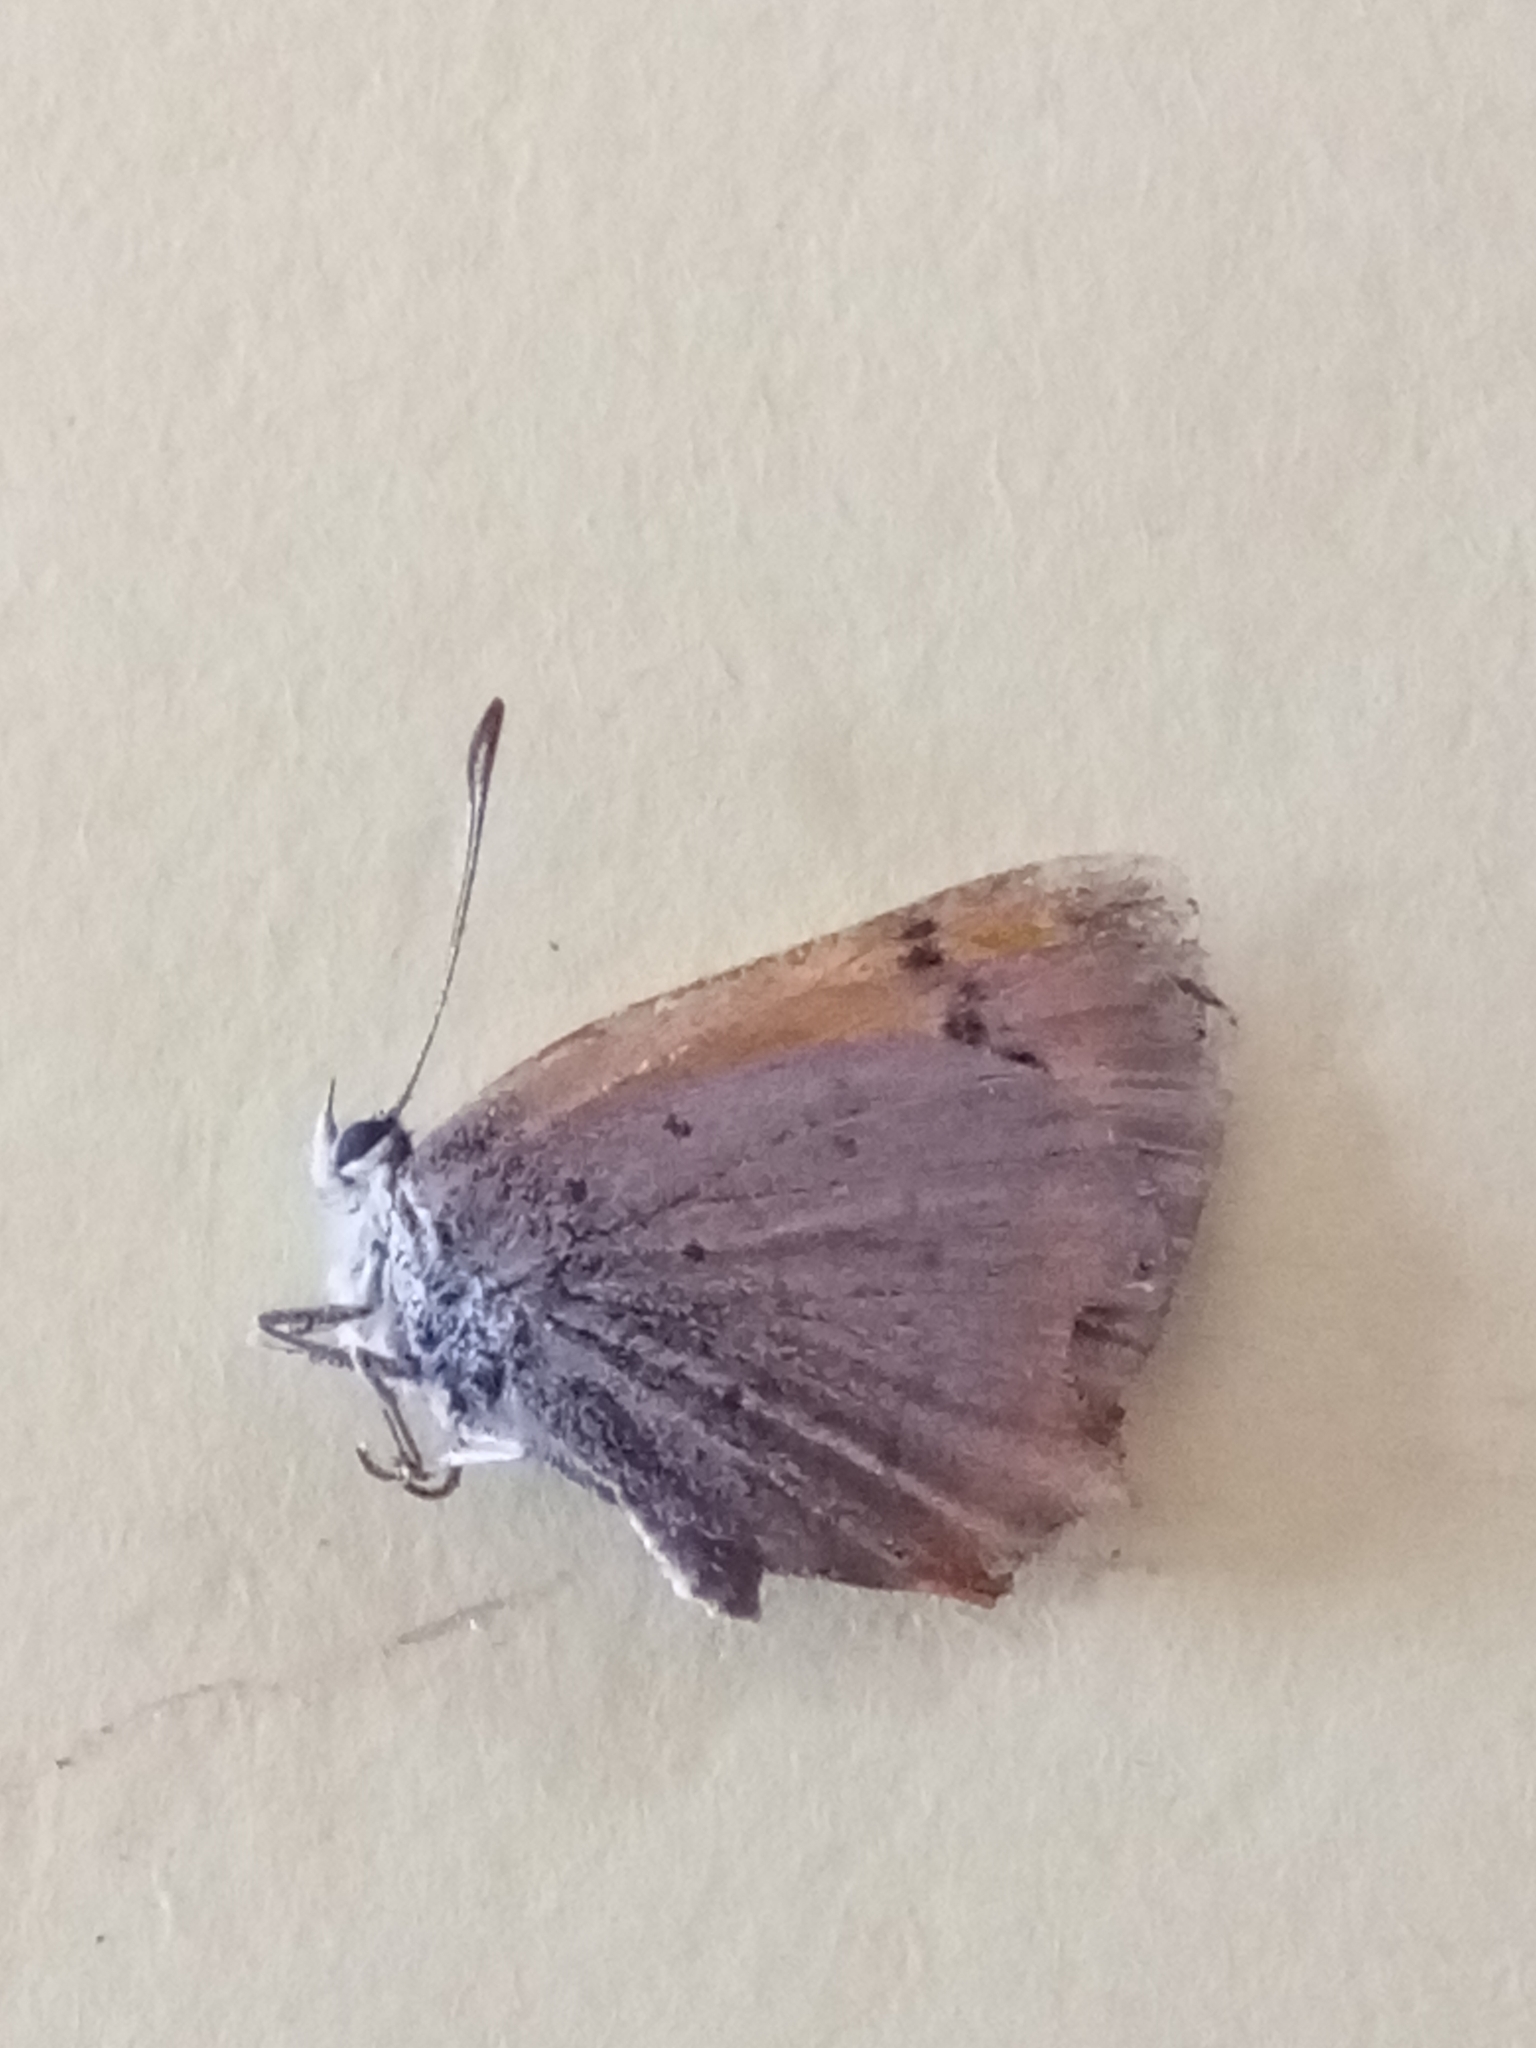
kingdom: Animalia
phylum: Arthropoda
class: Insecta
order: Lepidoptera
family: Lycaenidae
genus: Lycaena
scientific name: Lycaena phlaeas
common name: Small copper
